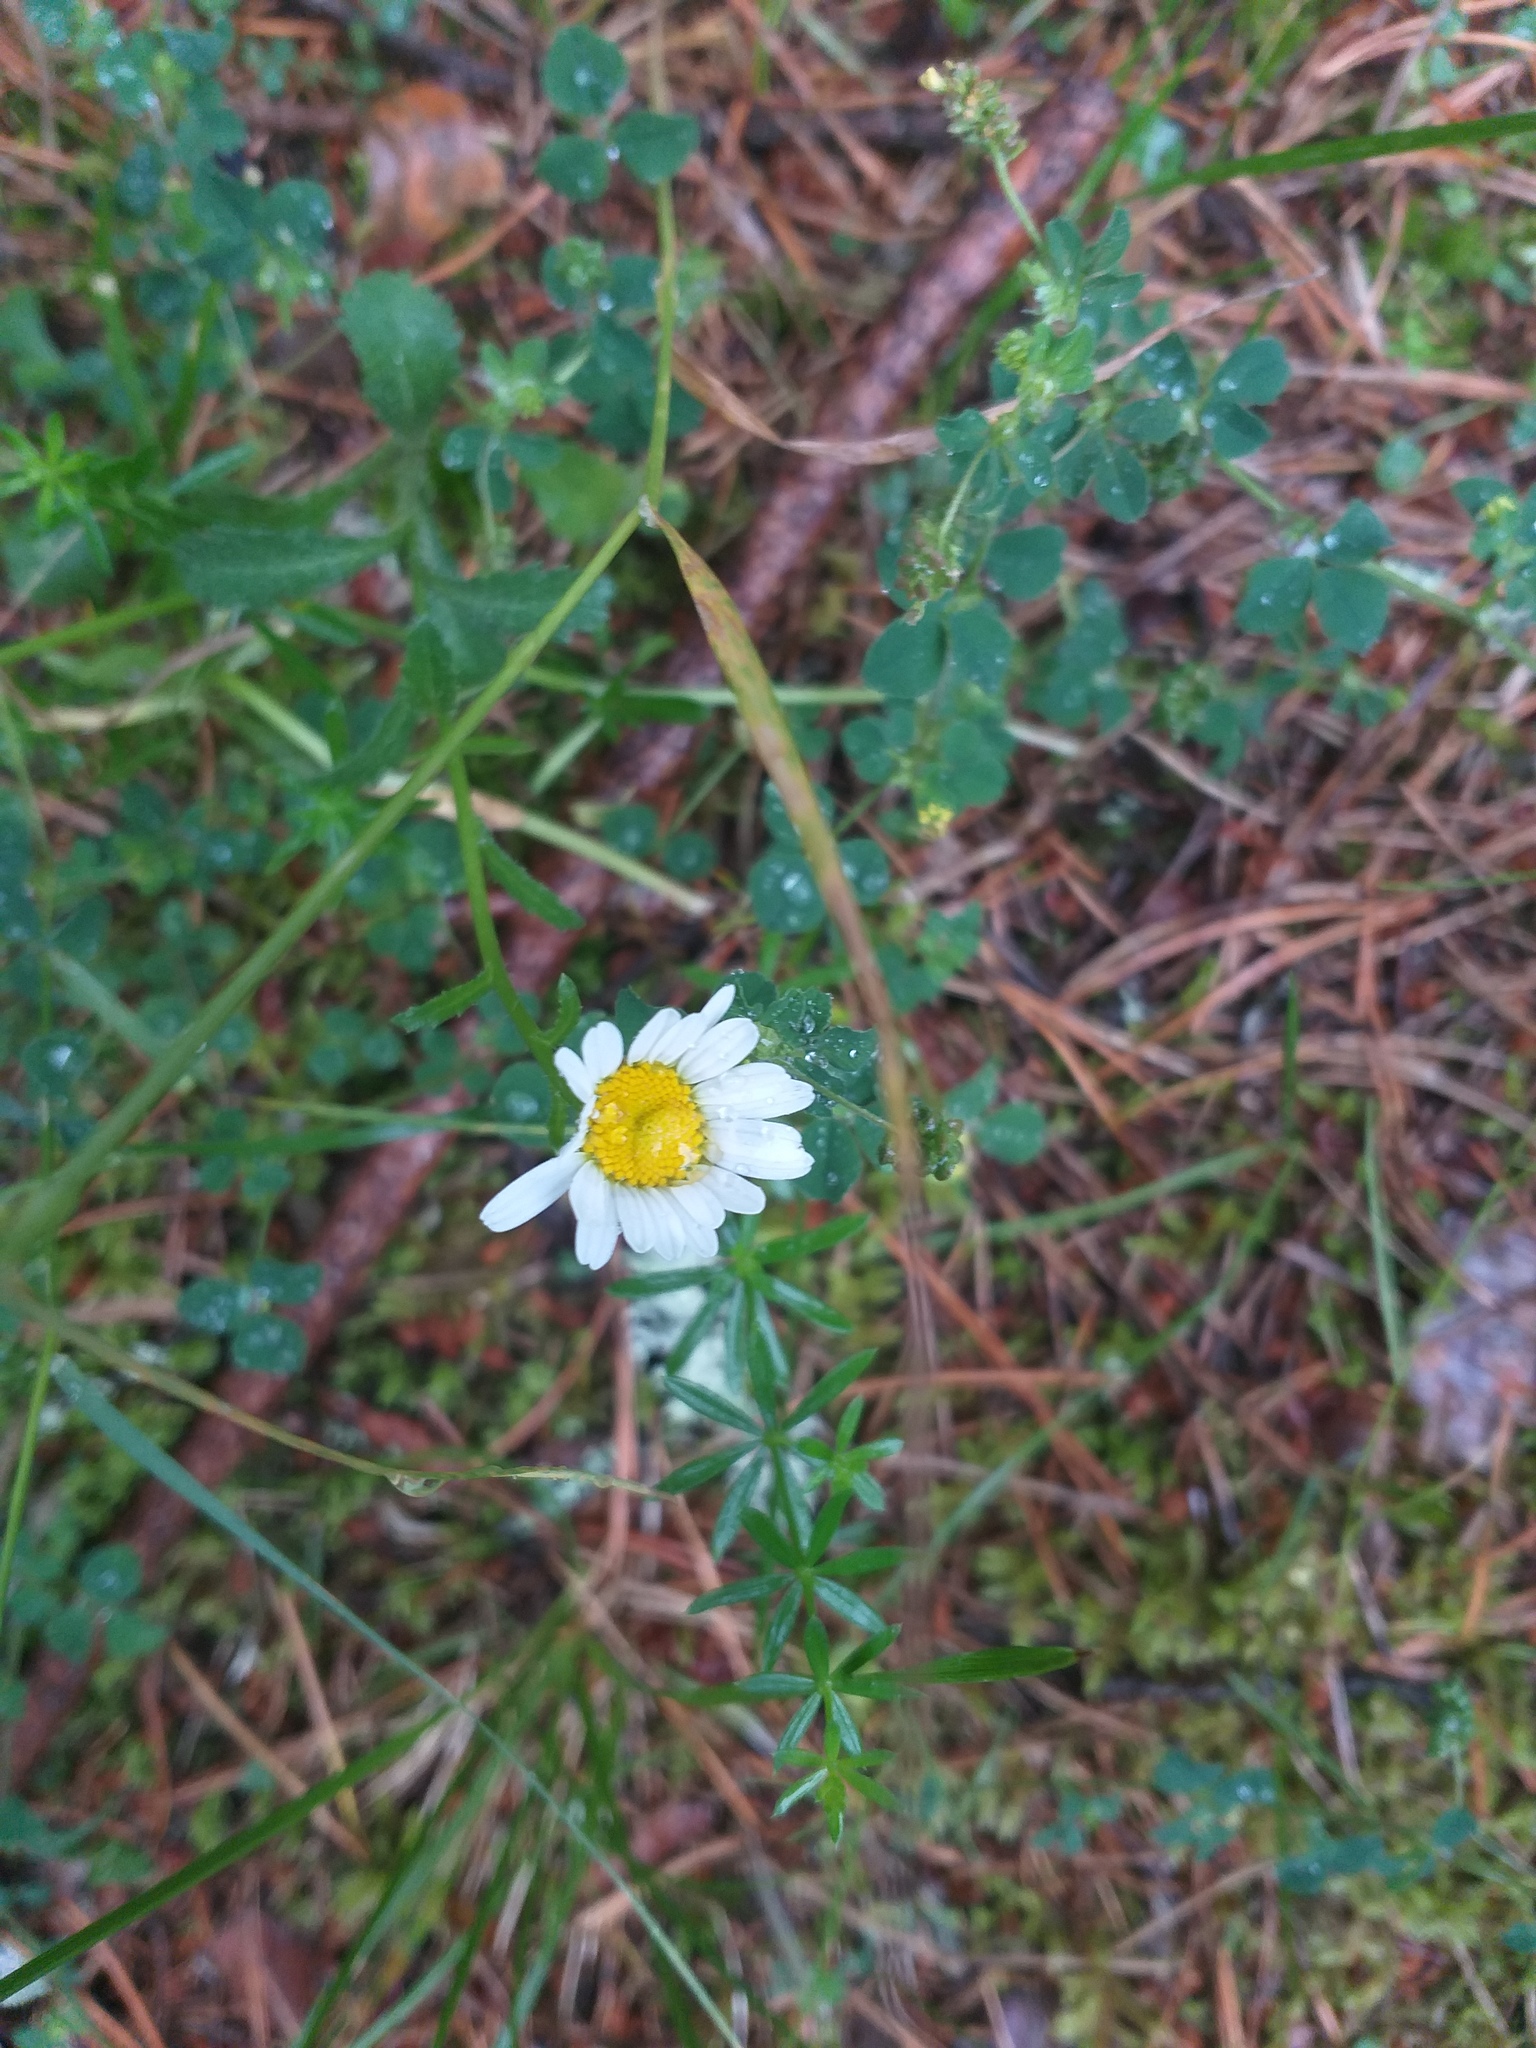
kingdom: Plantae
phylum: Tracheophyta
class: Magnoliopsida
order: Asterales
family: Asteraceae
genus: Leucanthemum
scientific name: Leucanthemum vulgare
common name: Oxeye daisy
